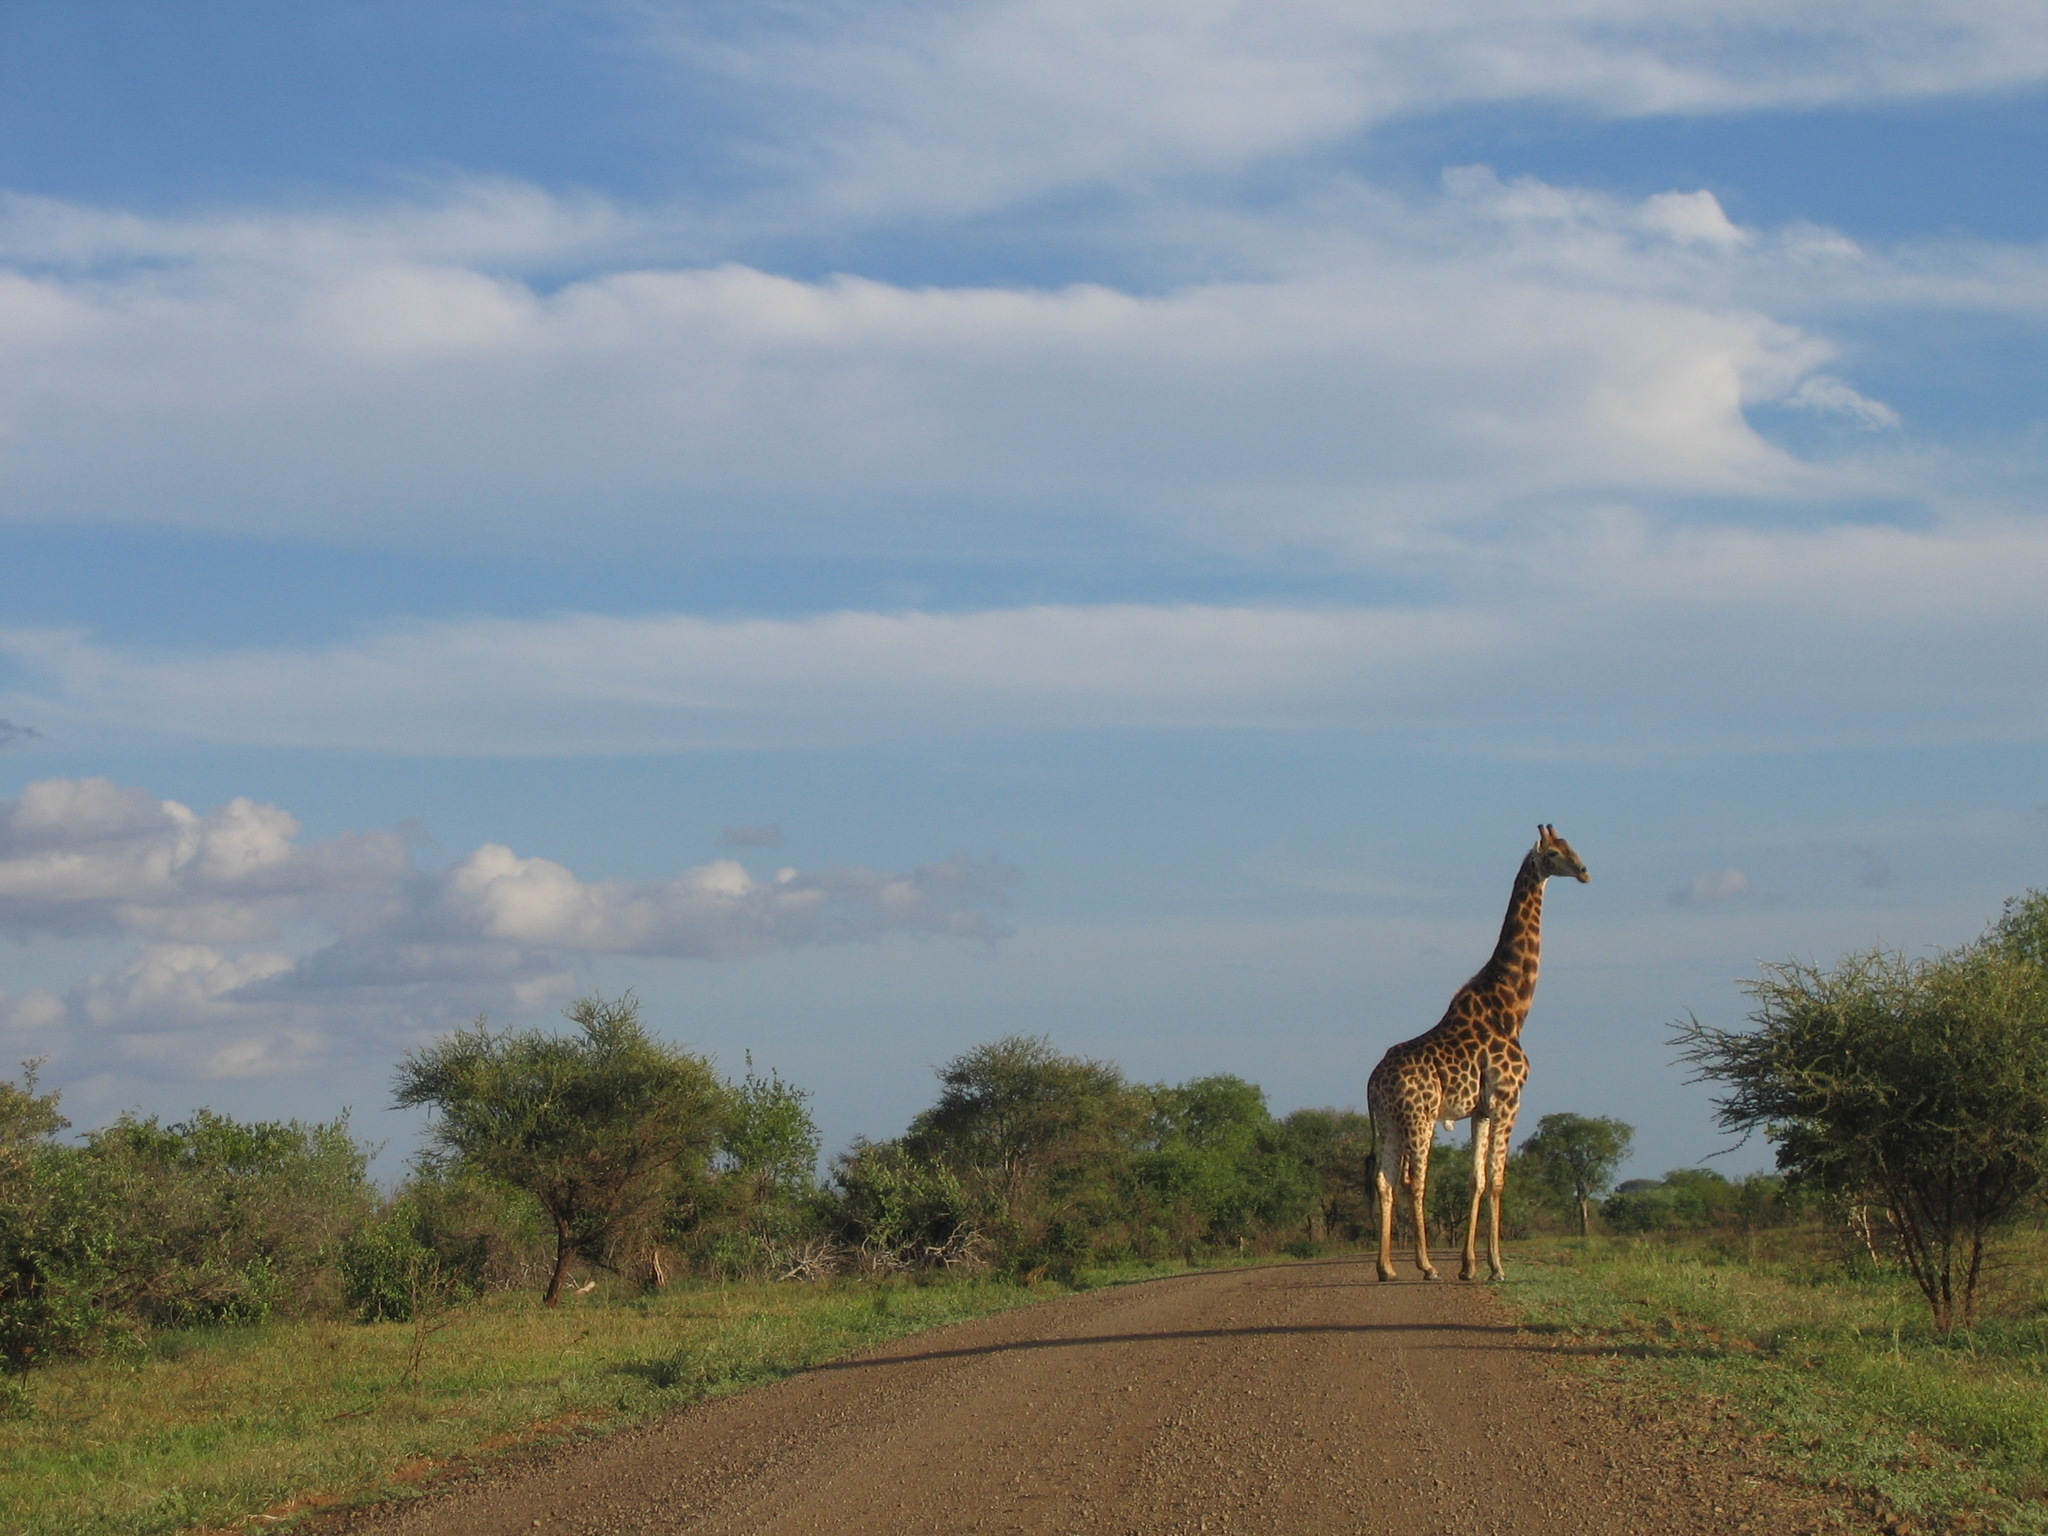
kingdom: Animalia
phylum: Chordata
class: Mammalia
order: Artiodactyla
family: Giraffidae
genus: Giraffa
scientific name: Giraffa giraffa
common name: Southern giraffe
